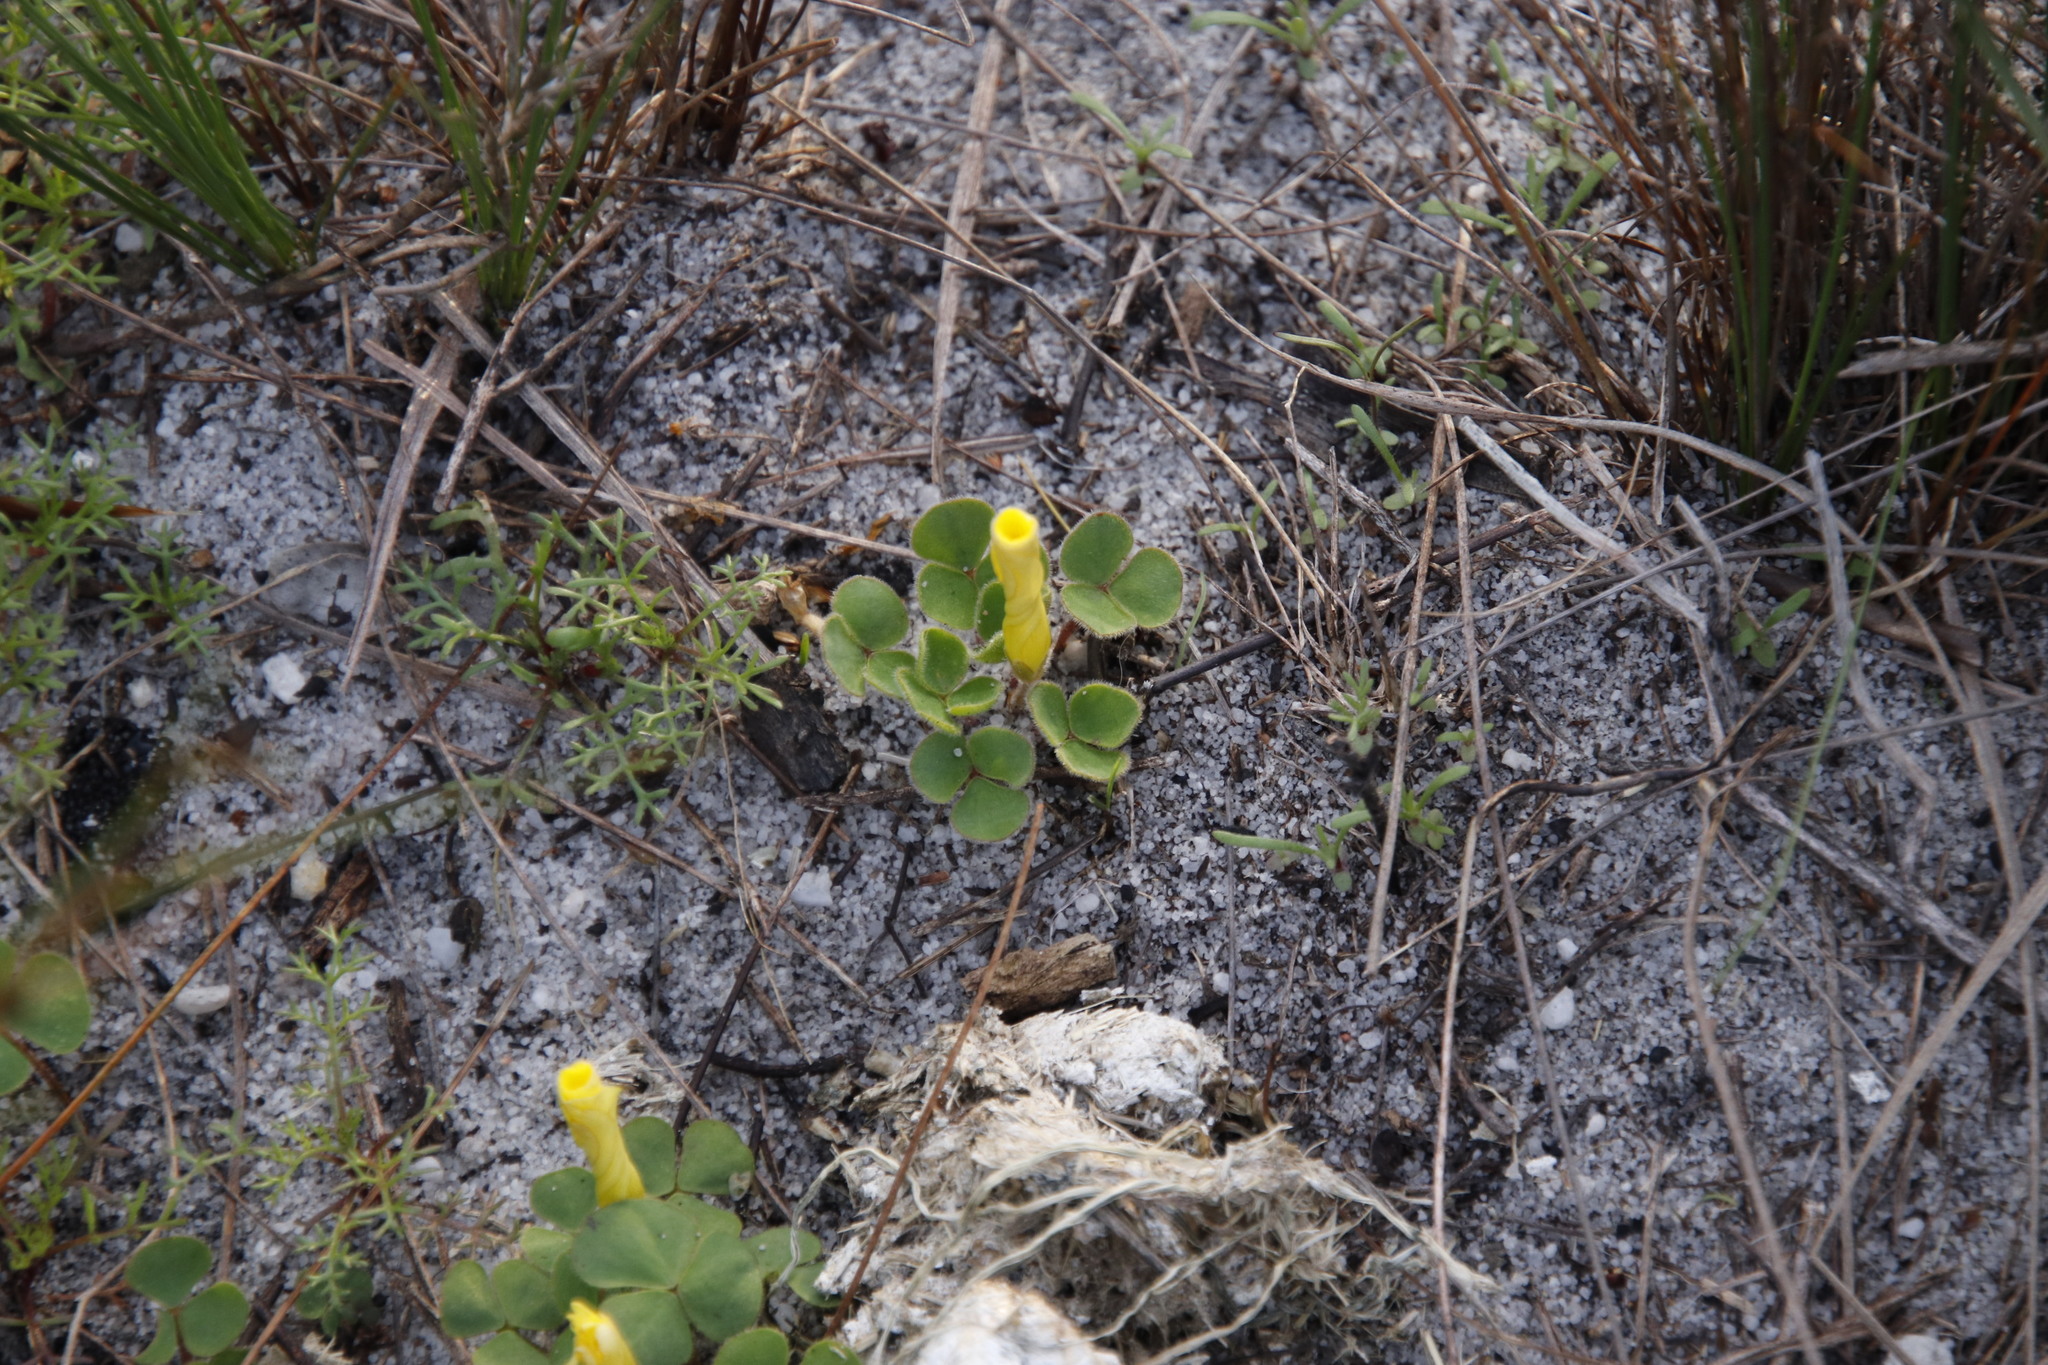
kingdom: Plantae
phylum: Tracheophyta
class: Magnoliopsida
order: Oxalidales
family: Oxalidaceae
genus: Oxalis
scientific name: Oxalis luteola
